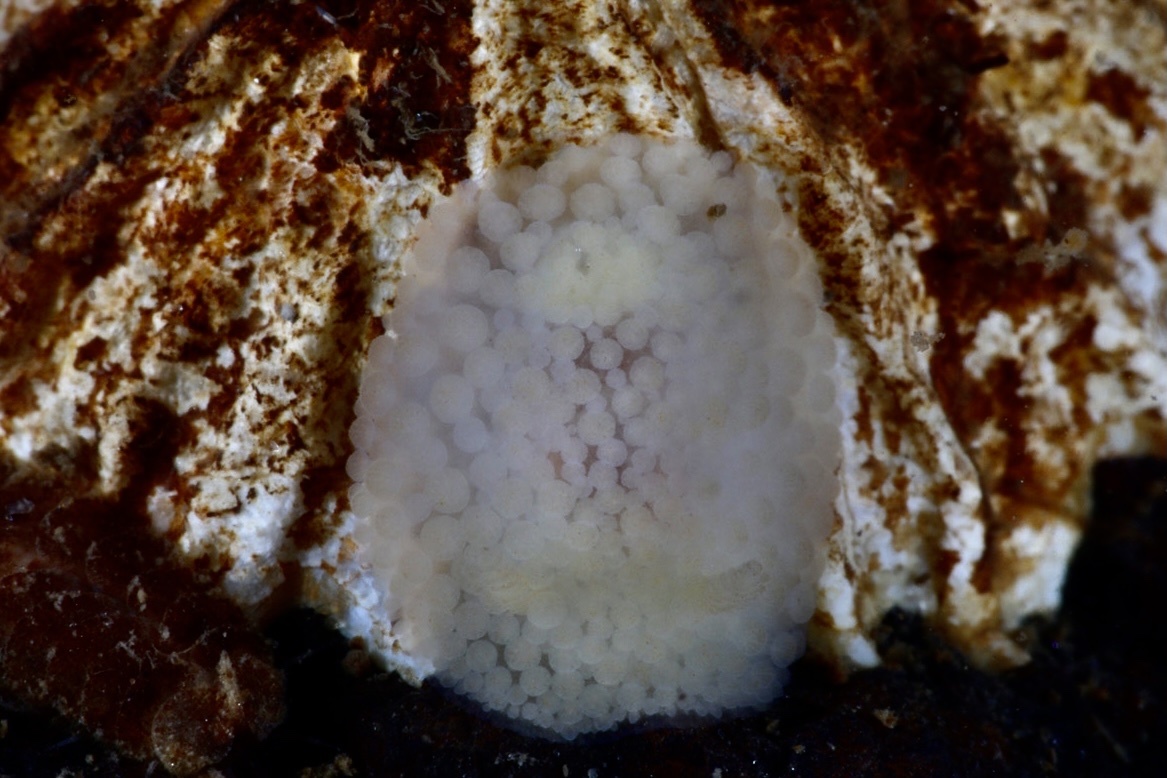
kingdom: Animalia
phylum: Mollusca
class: Gastropoda
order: Nudibranchia
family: Onchidorididae
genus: Onchidoris
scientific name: Onchidoris muricata
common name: Rough doris
